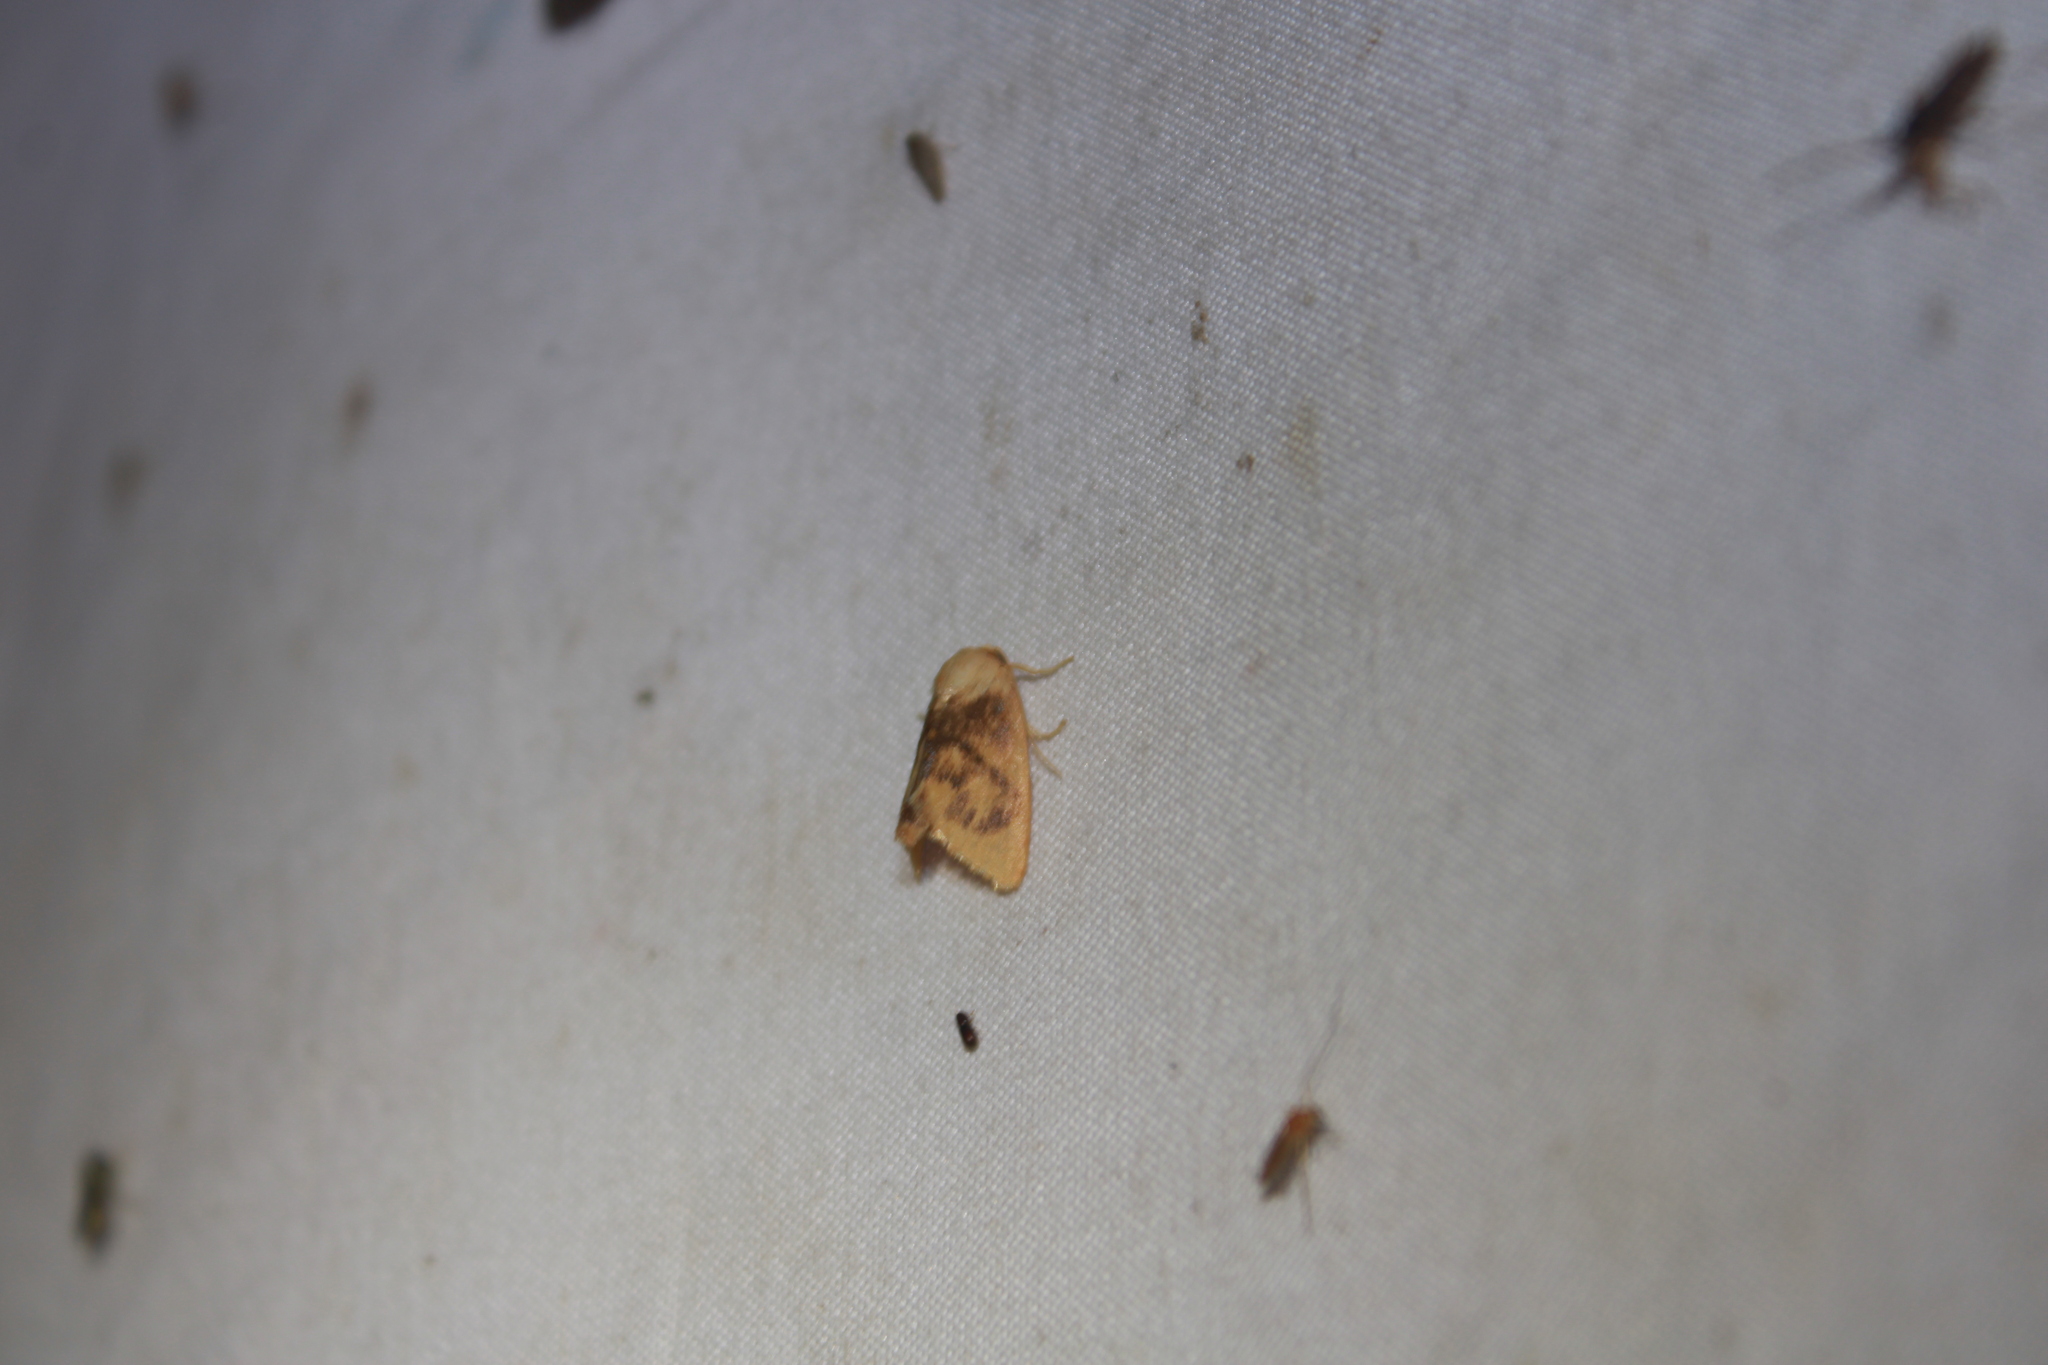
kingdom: Animalia
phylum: Arthropoda
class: Insecta
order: Lepidoptera
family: Limacodidae
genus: Tortricidia
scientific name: Tortricidia flexuosa
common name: Abbreviated button slug moth
